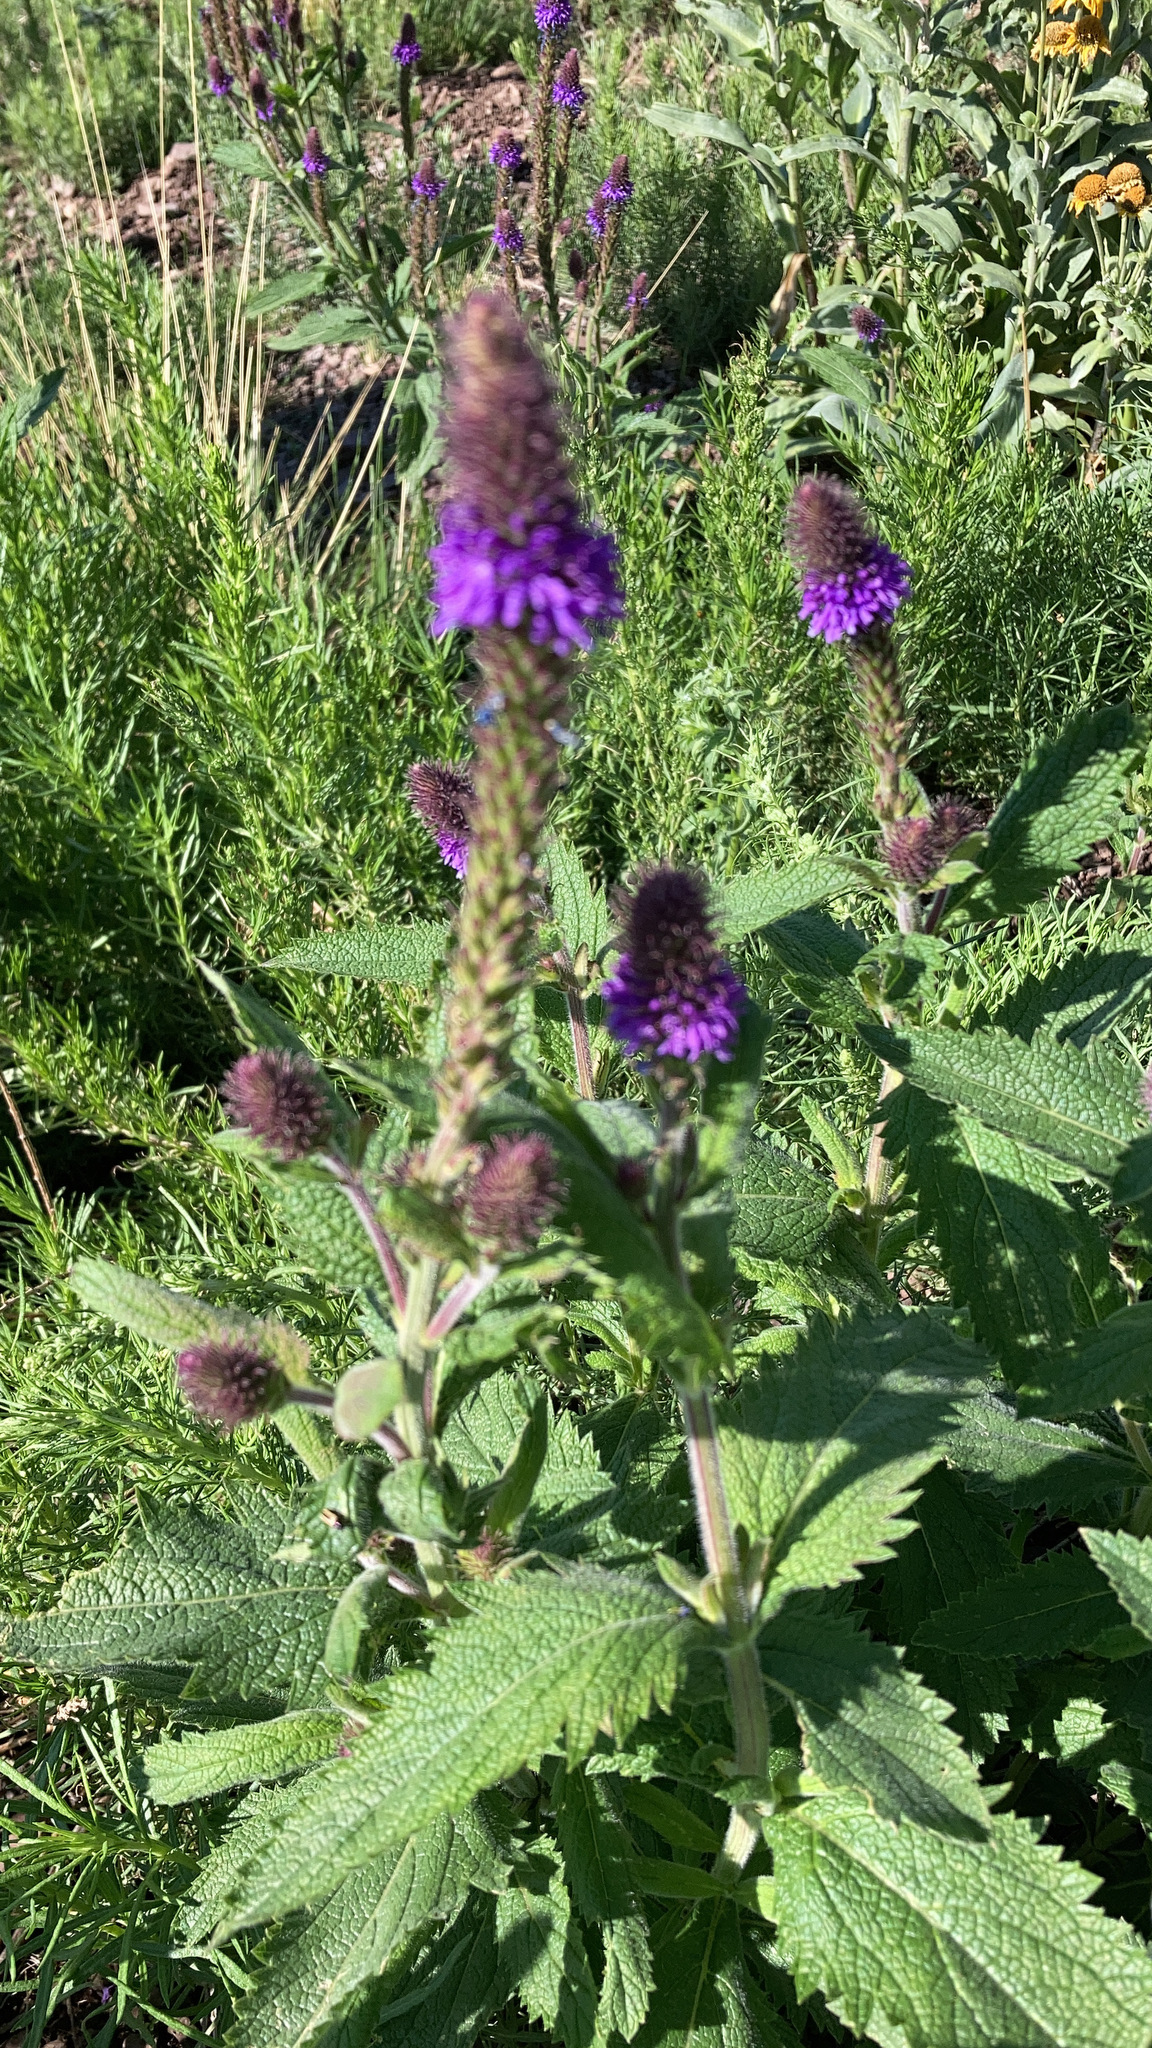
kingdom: Plantae
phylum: Tracheophyta
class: Magnoliopsida
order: Lamiales
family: Verbenaceae
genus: Verbena
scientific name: Verbena macdougalii
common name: New mexico vervain
